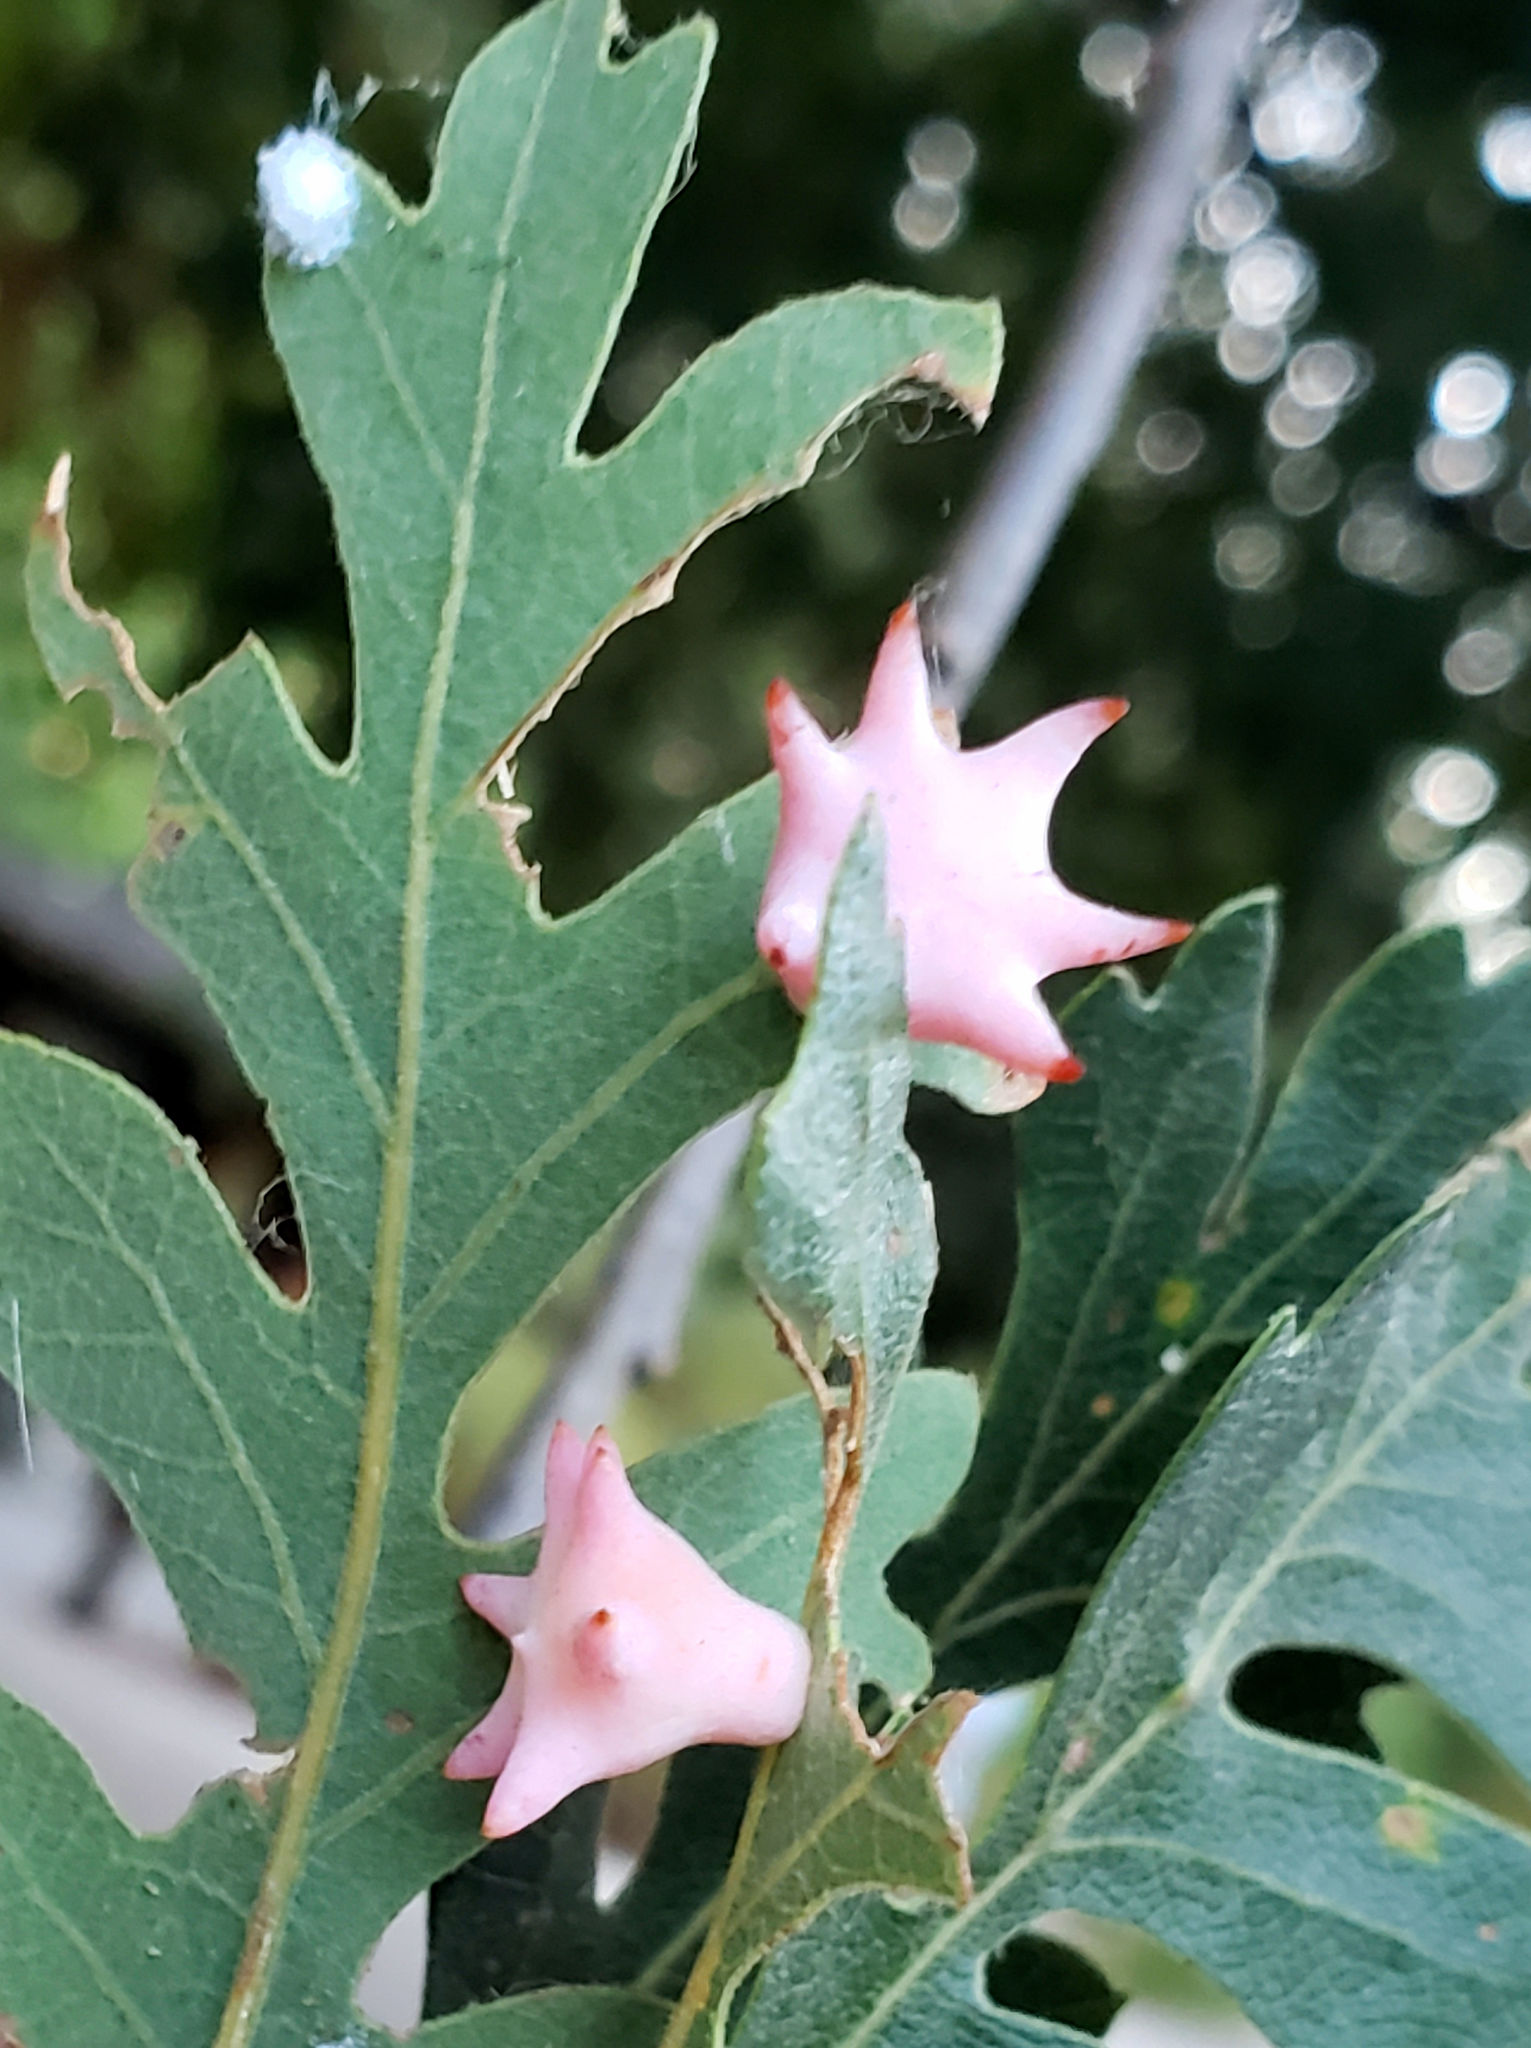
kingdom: Animalia
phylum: Arthropoda
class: Insecta
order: Hymenoptera
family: Cynipidae
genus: Cynips
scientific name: Cynips douglasi
